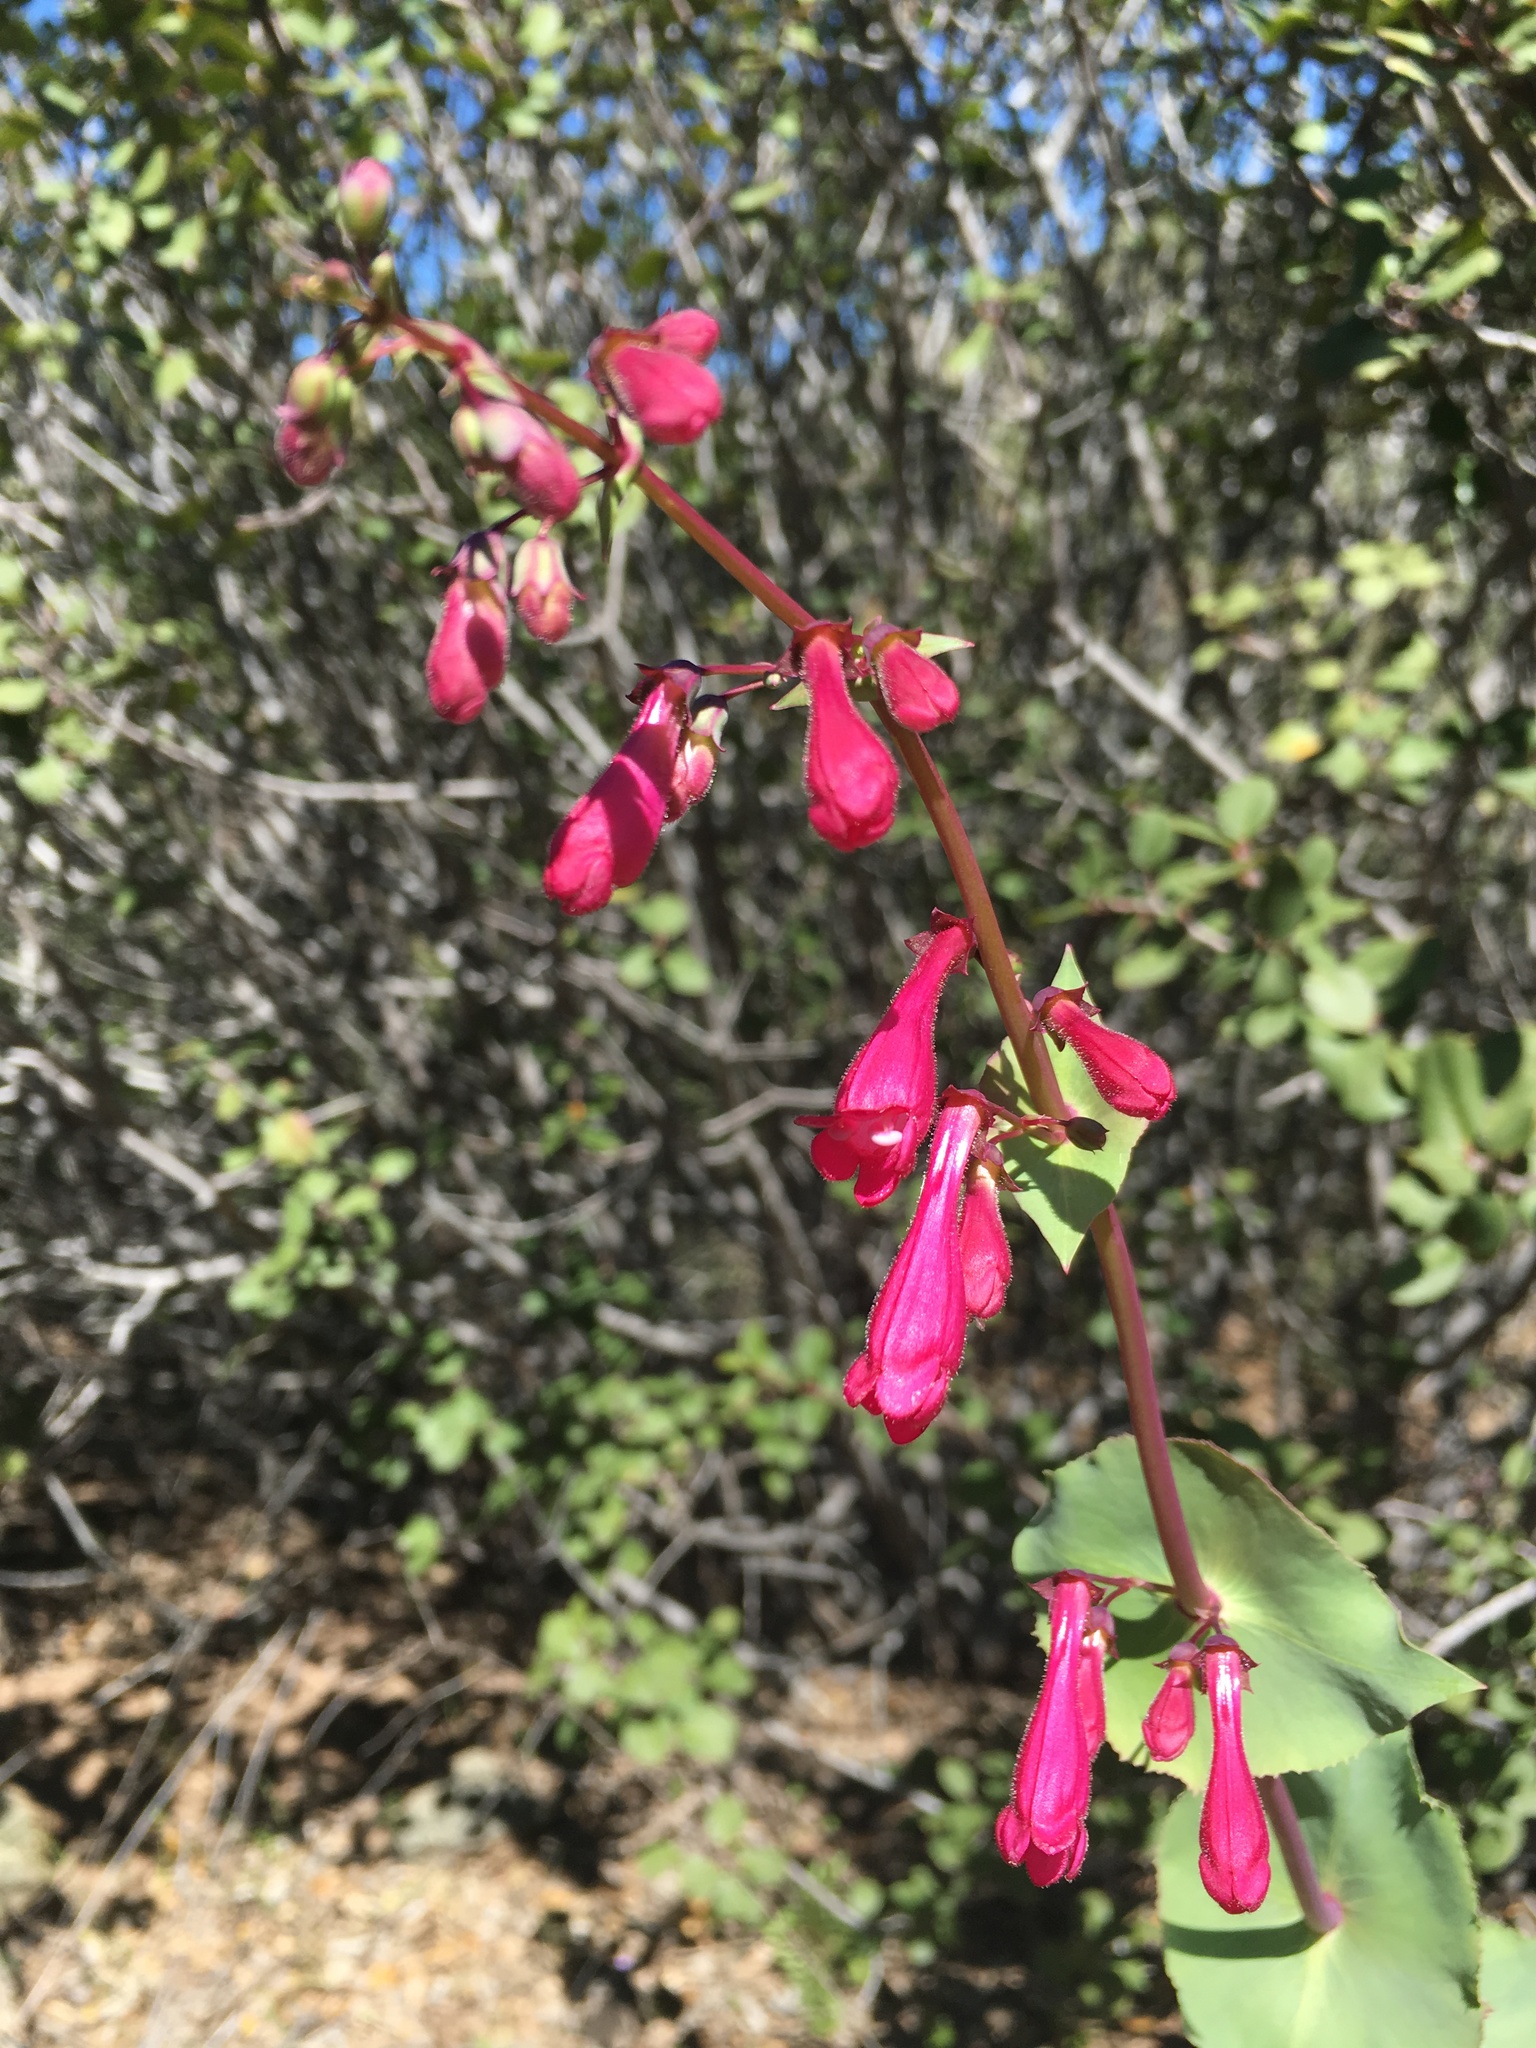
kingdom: Plantae
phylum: Tracheophyta
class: Magnoliopsida
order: Lamiales
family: Plantaginaceae
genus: Penstemon
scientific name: Penstemon pseudospectabilis
